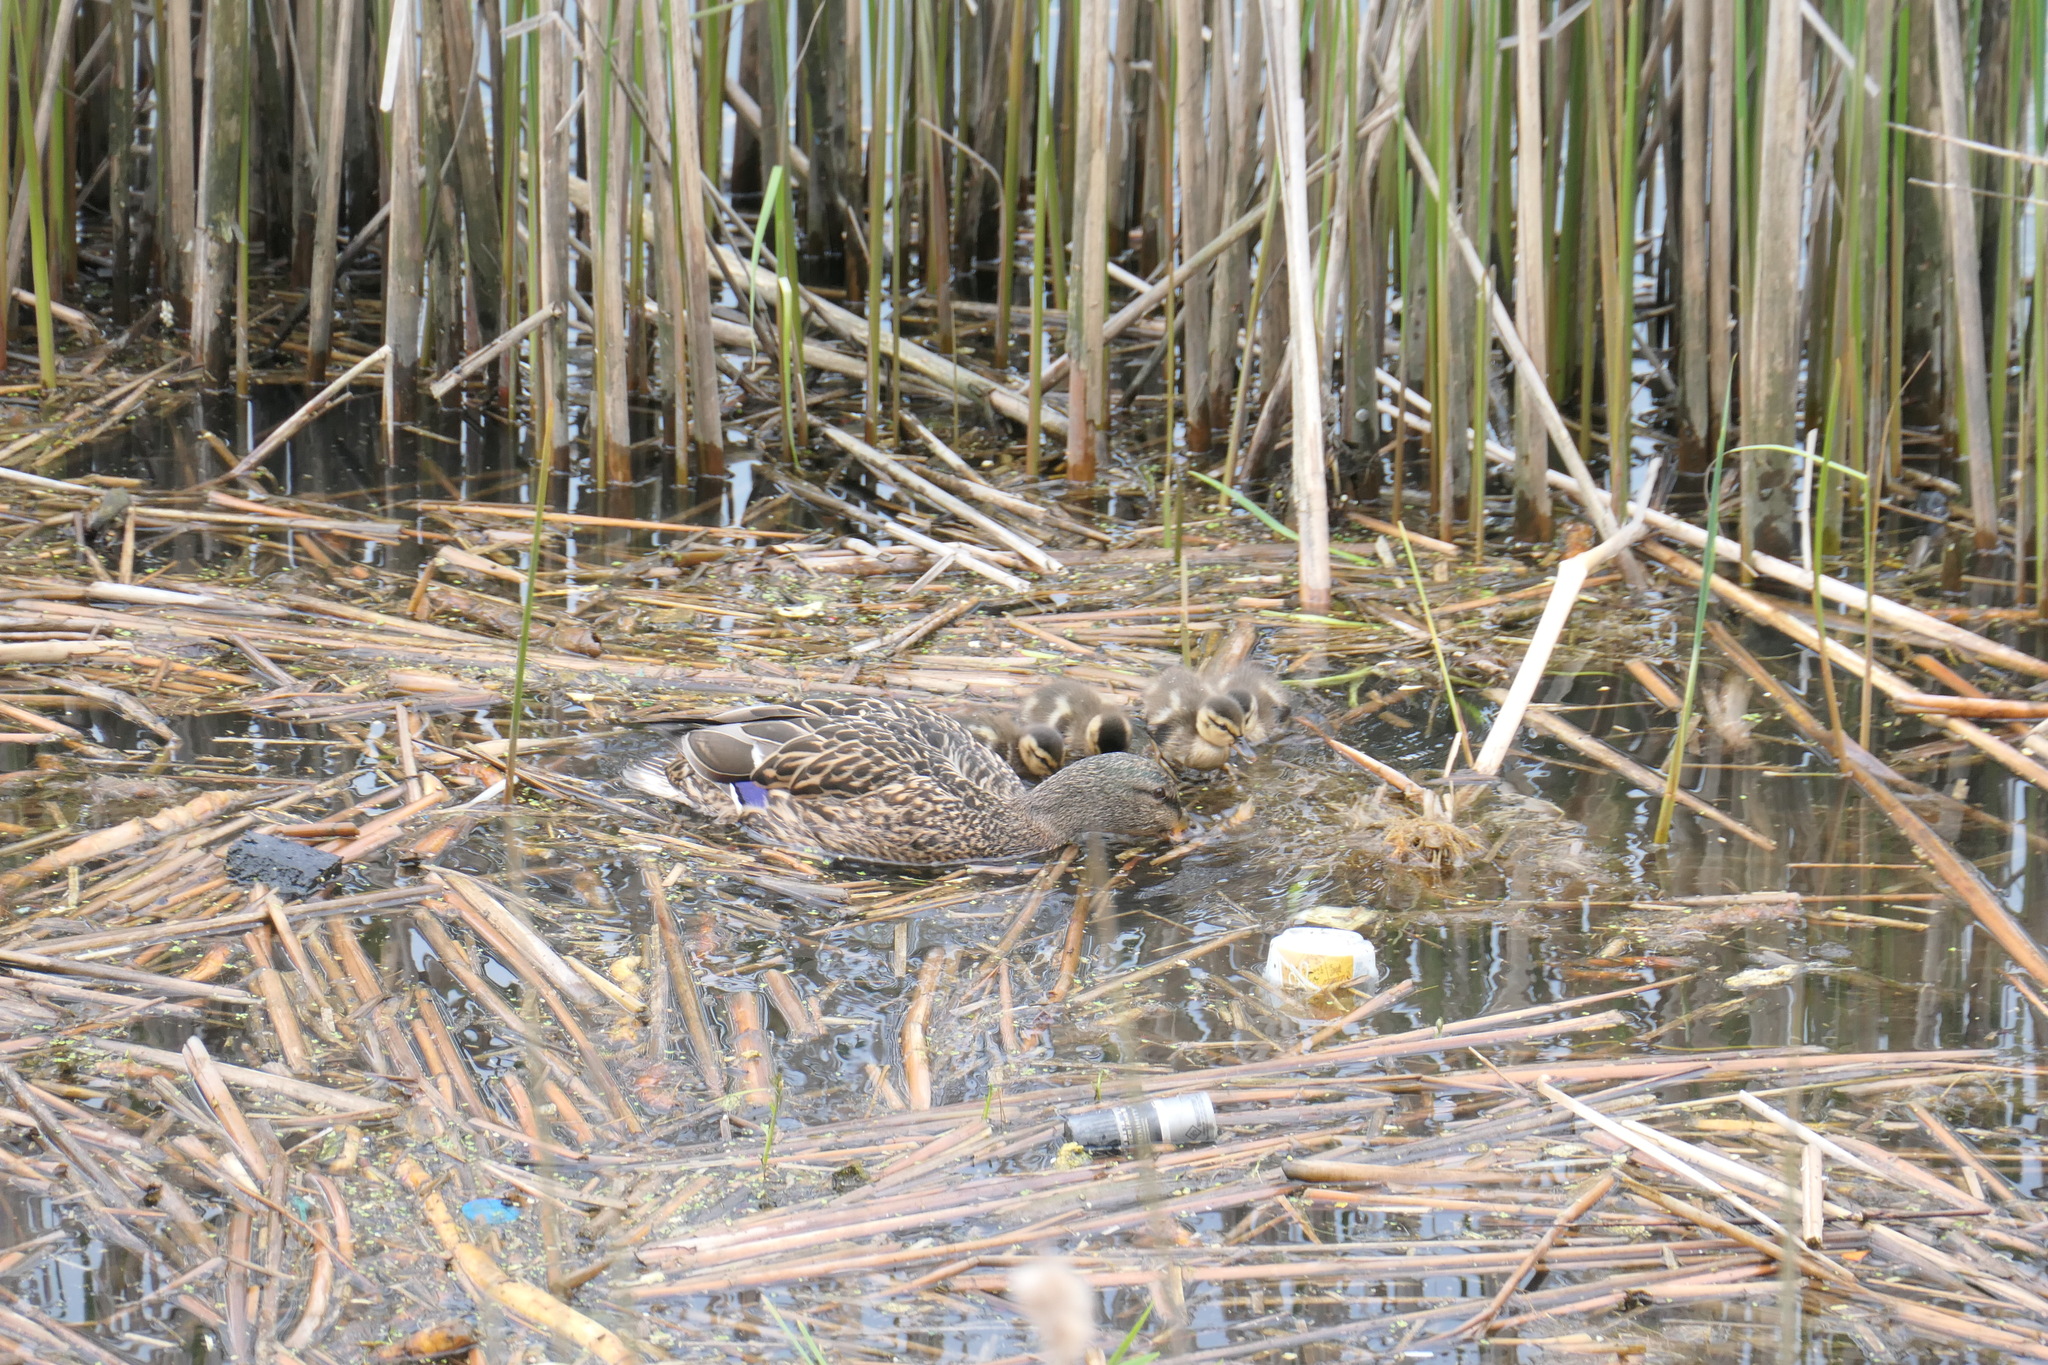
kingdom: Animalia
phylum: Chordata
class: Aves
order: Anseriformes
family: Anatidae
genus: Anas
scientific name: Anas platyrhynchos
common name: Mallard
